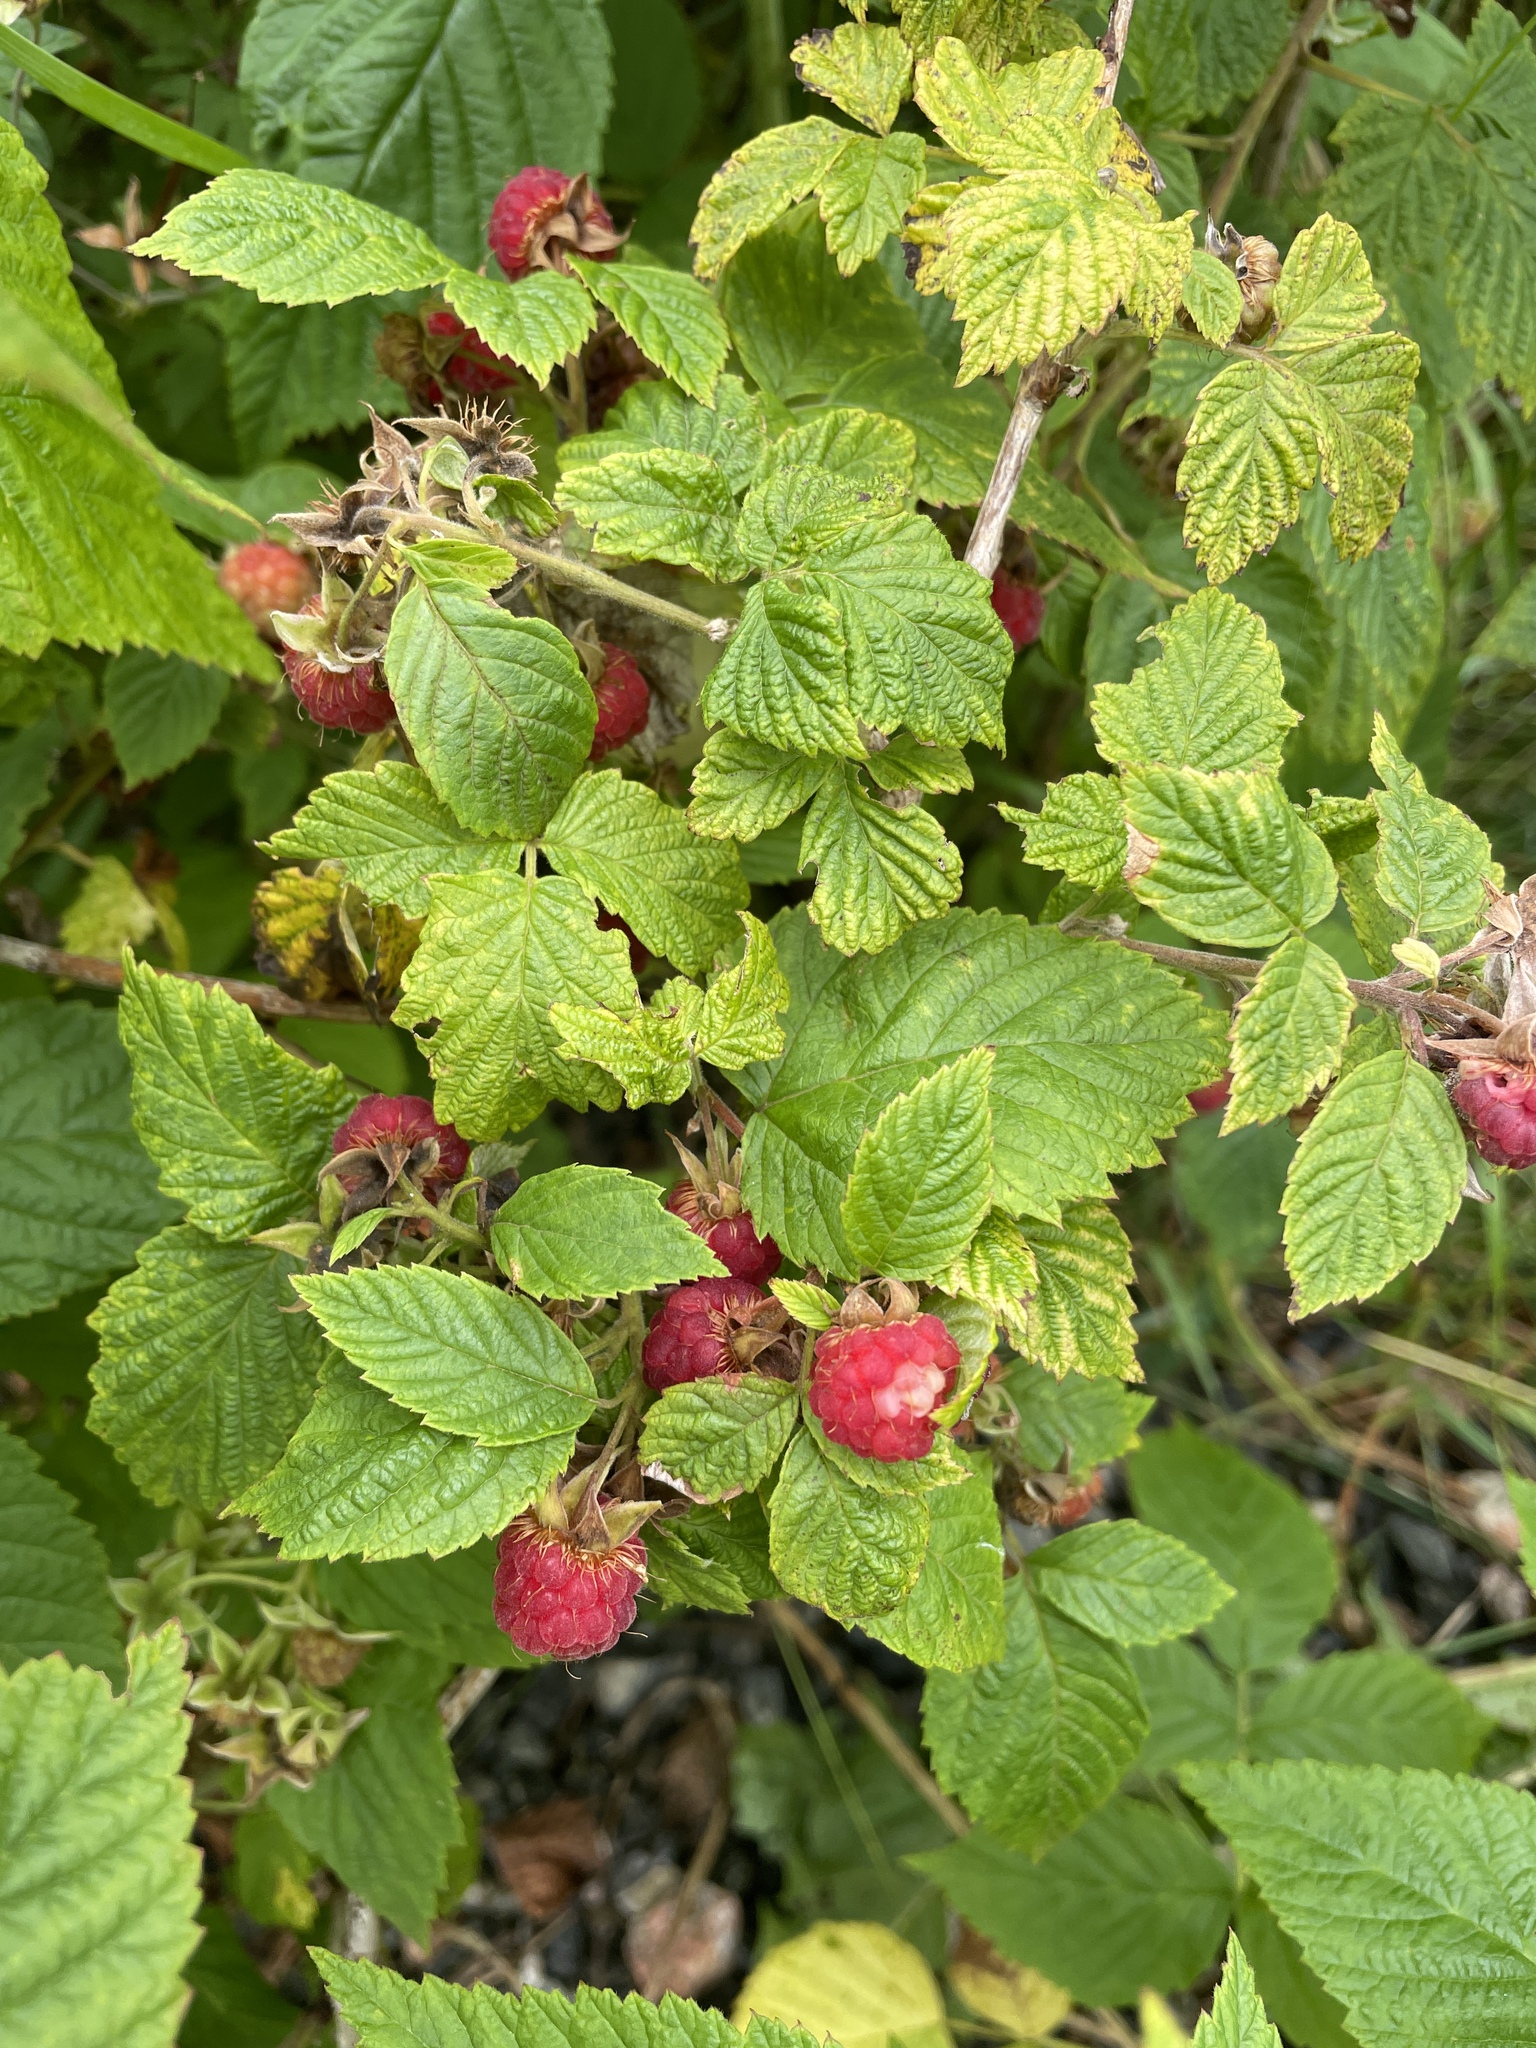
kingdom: Plantae
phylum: Tracheophyta
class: Magnoliopsida
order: Rosales
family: Rosaceae
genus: Rubus
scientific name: Rubus idaeus
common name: Raspberry
